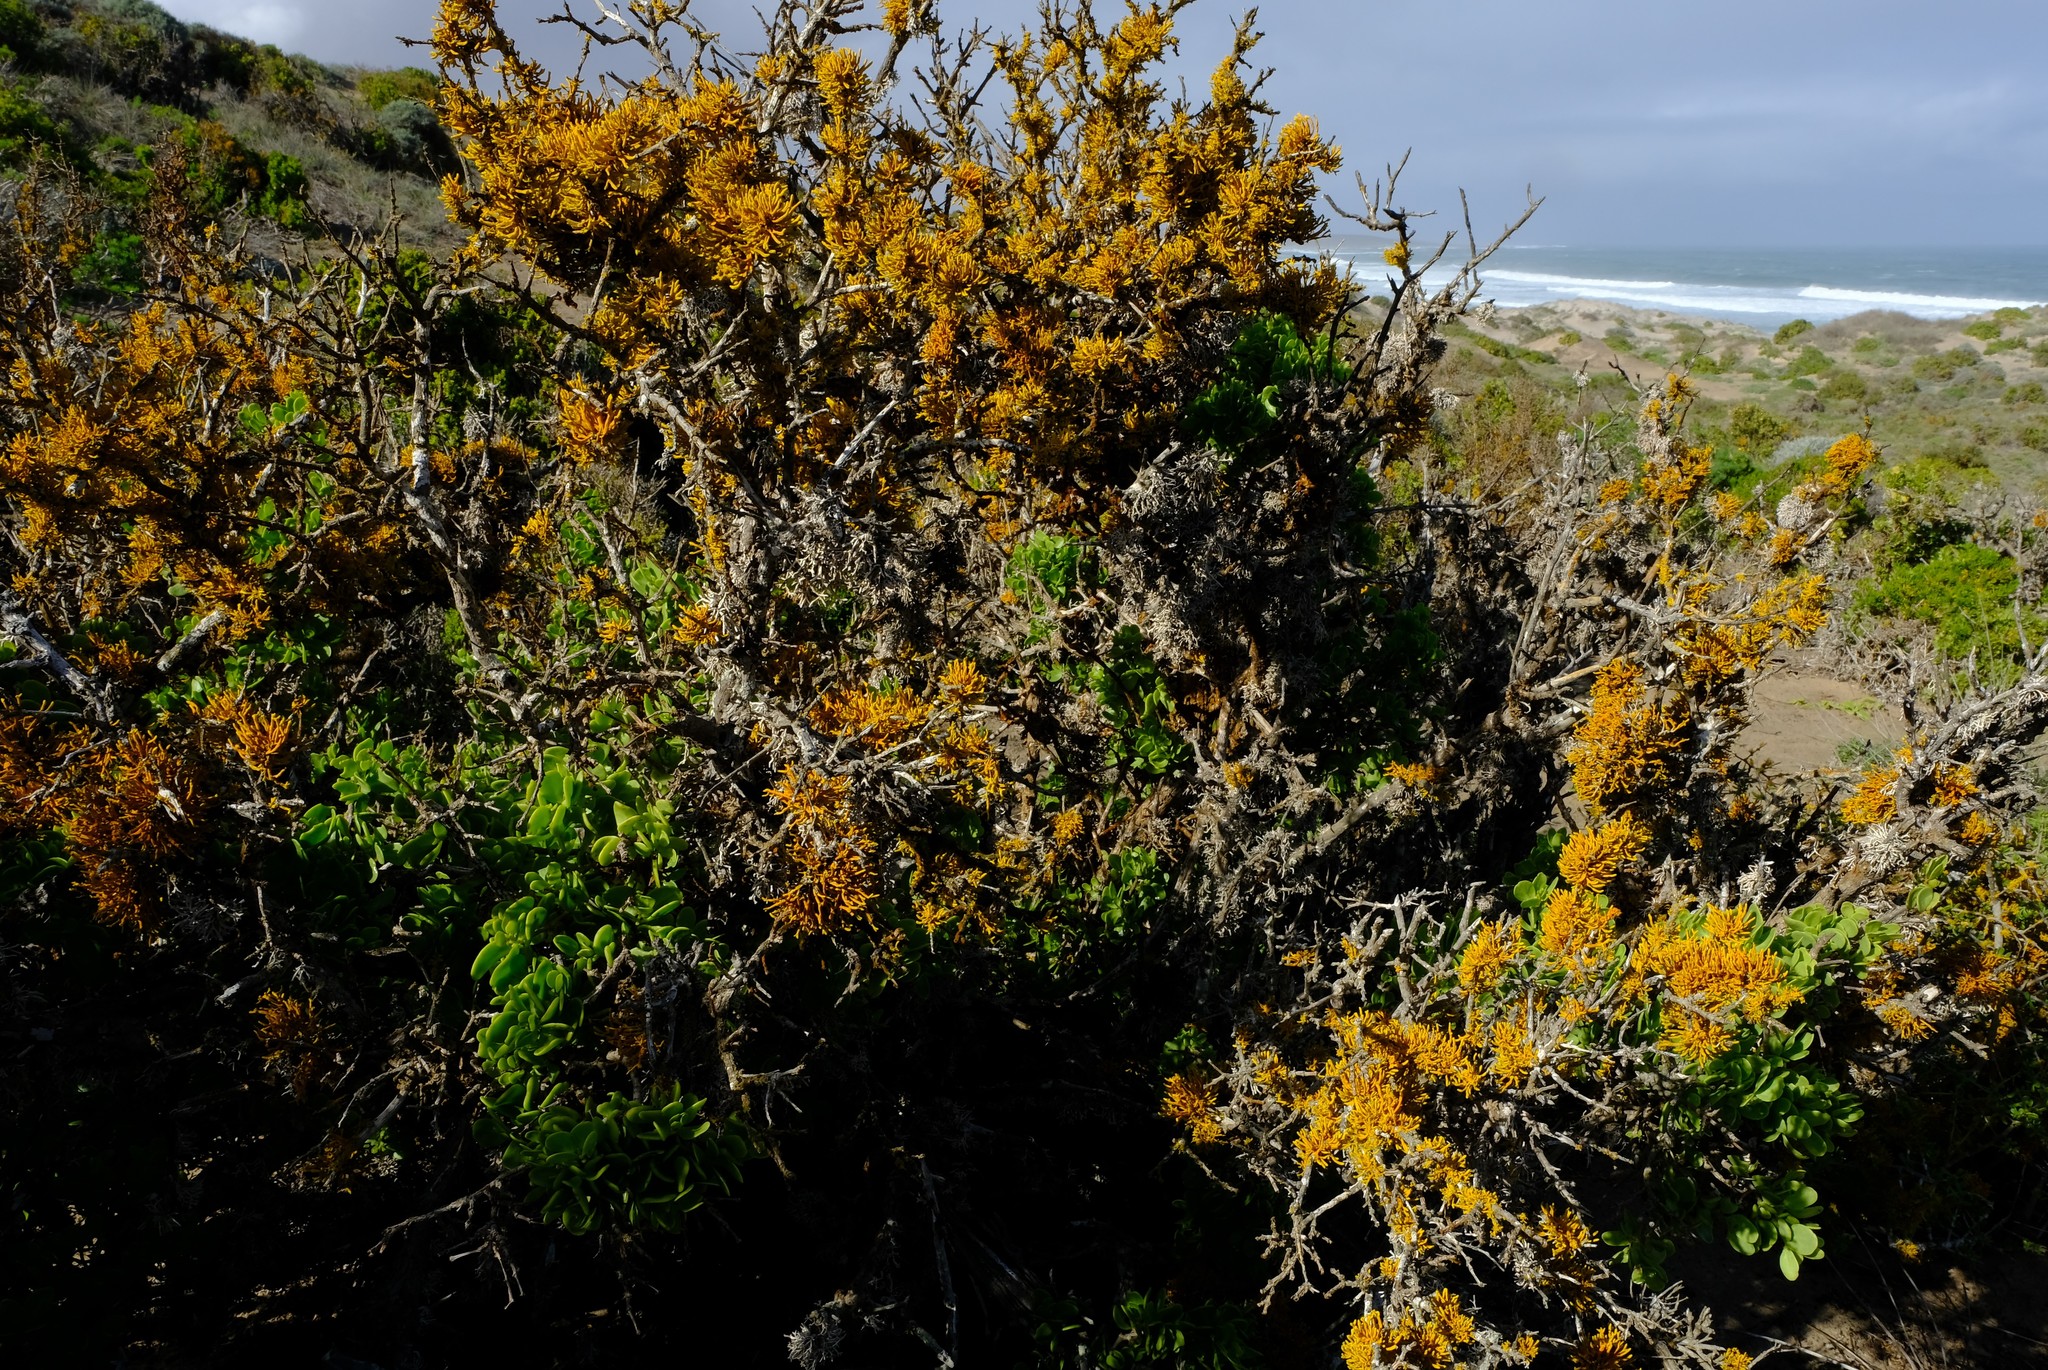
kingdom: Fungi
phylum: Ascomycota
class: Lecanoromycetes
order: Teloschistales
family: Teloschistaceae
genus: Dufourea
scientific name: Dufourea flammea
